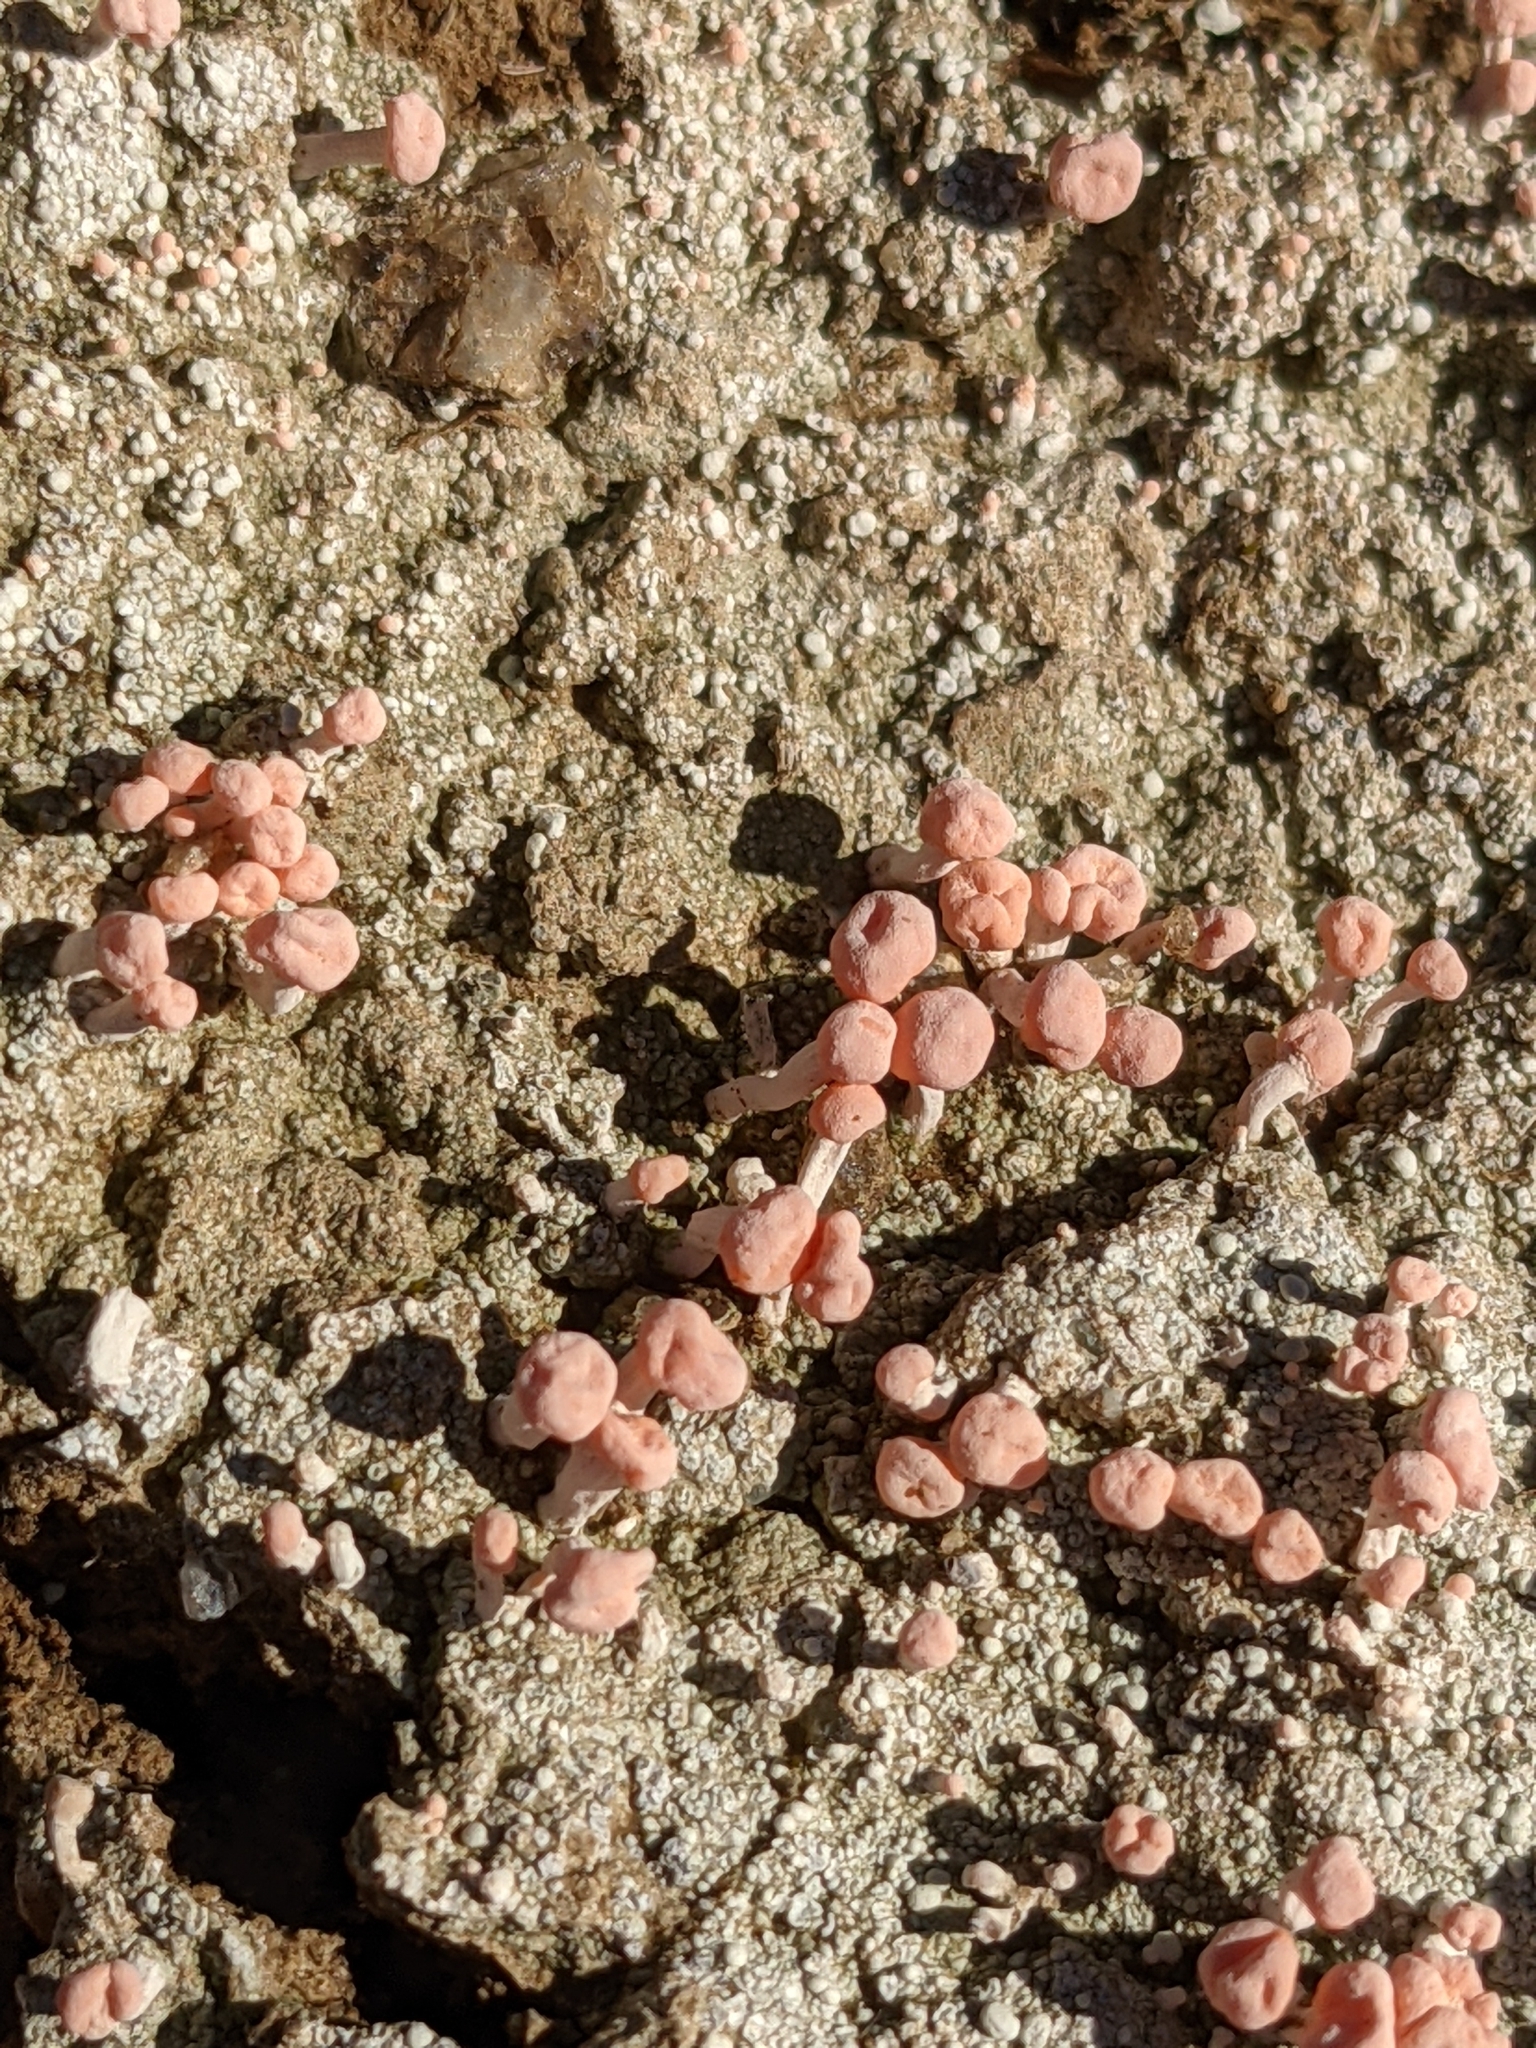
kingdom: Fungi
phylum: Ascomycota
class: Lecanoromycetes
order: Pertusariales
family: Icmadophilaceae
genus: Dibaeis
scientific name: Dibaeis baeomyces
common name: Pink earth lichen
